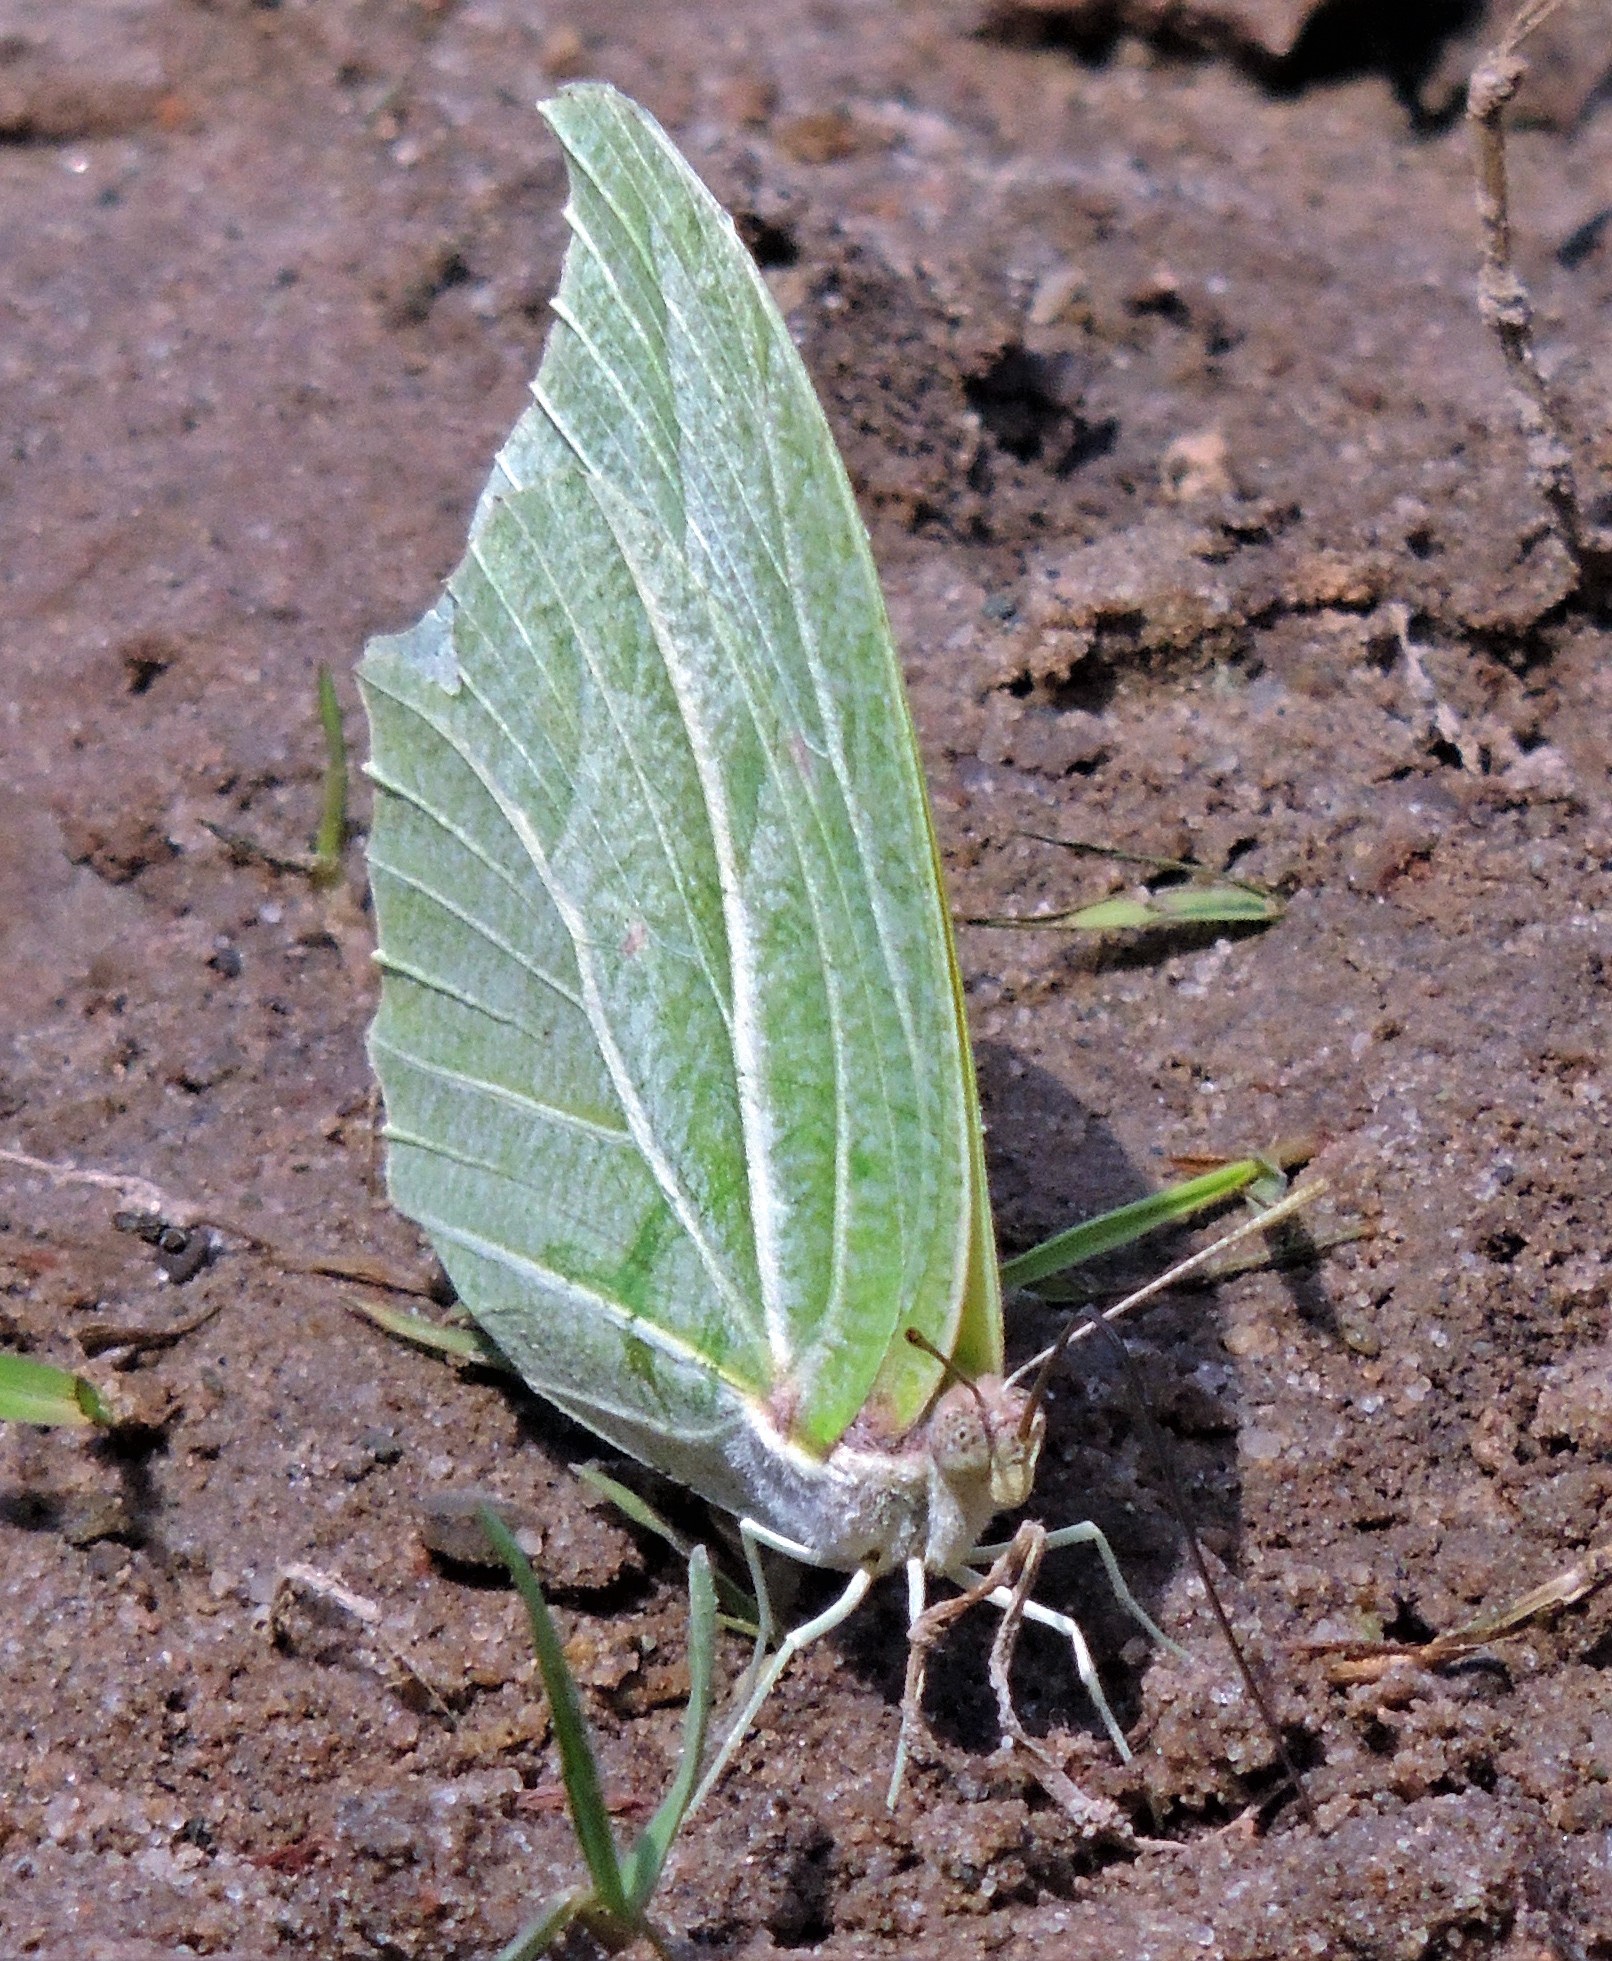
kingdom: Animalia
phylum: Arthropoda
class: Insecta
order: Lepidoptera
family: Pieridae
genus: Anteos
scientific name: Anteos clorinde
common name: White angled sulphur
